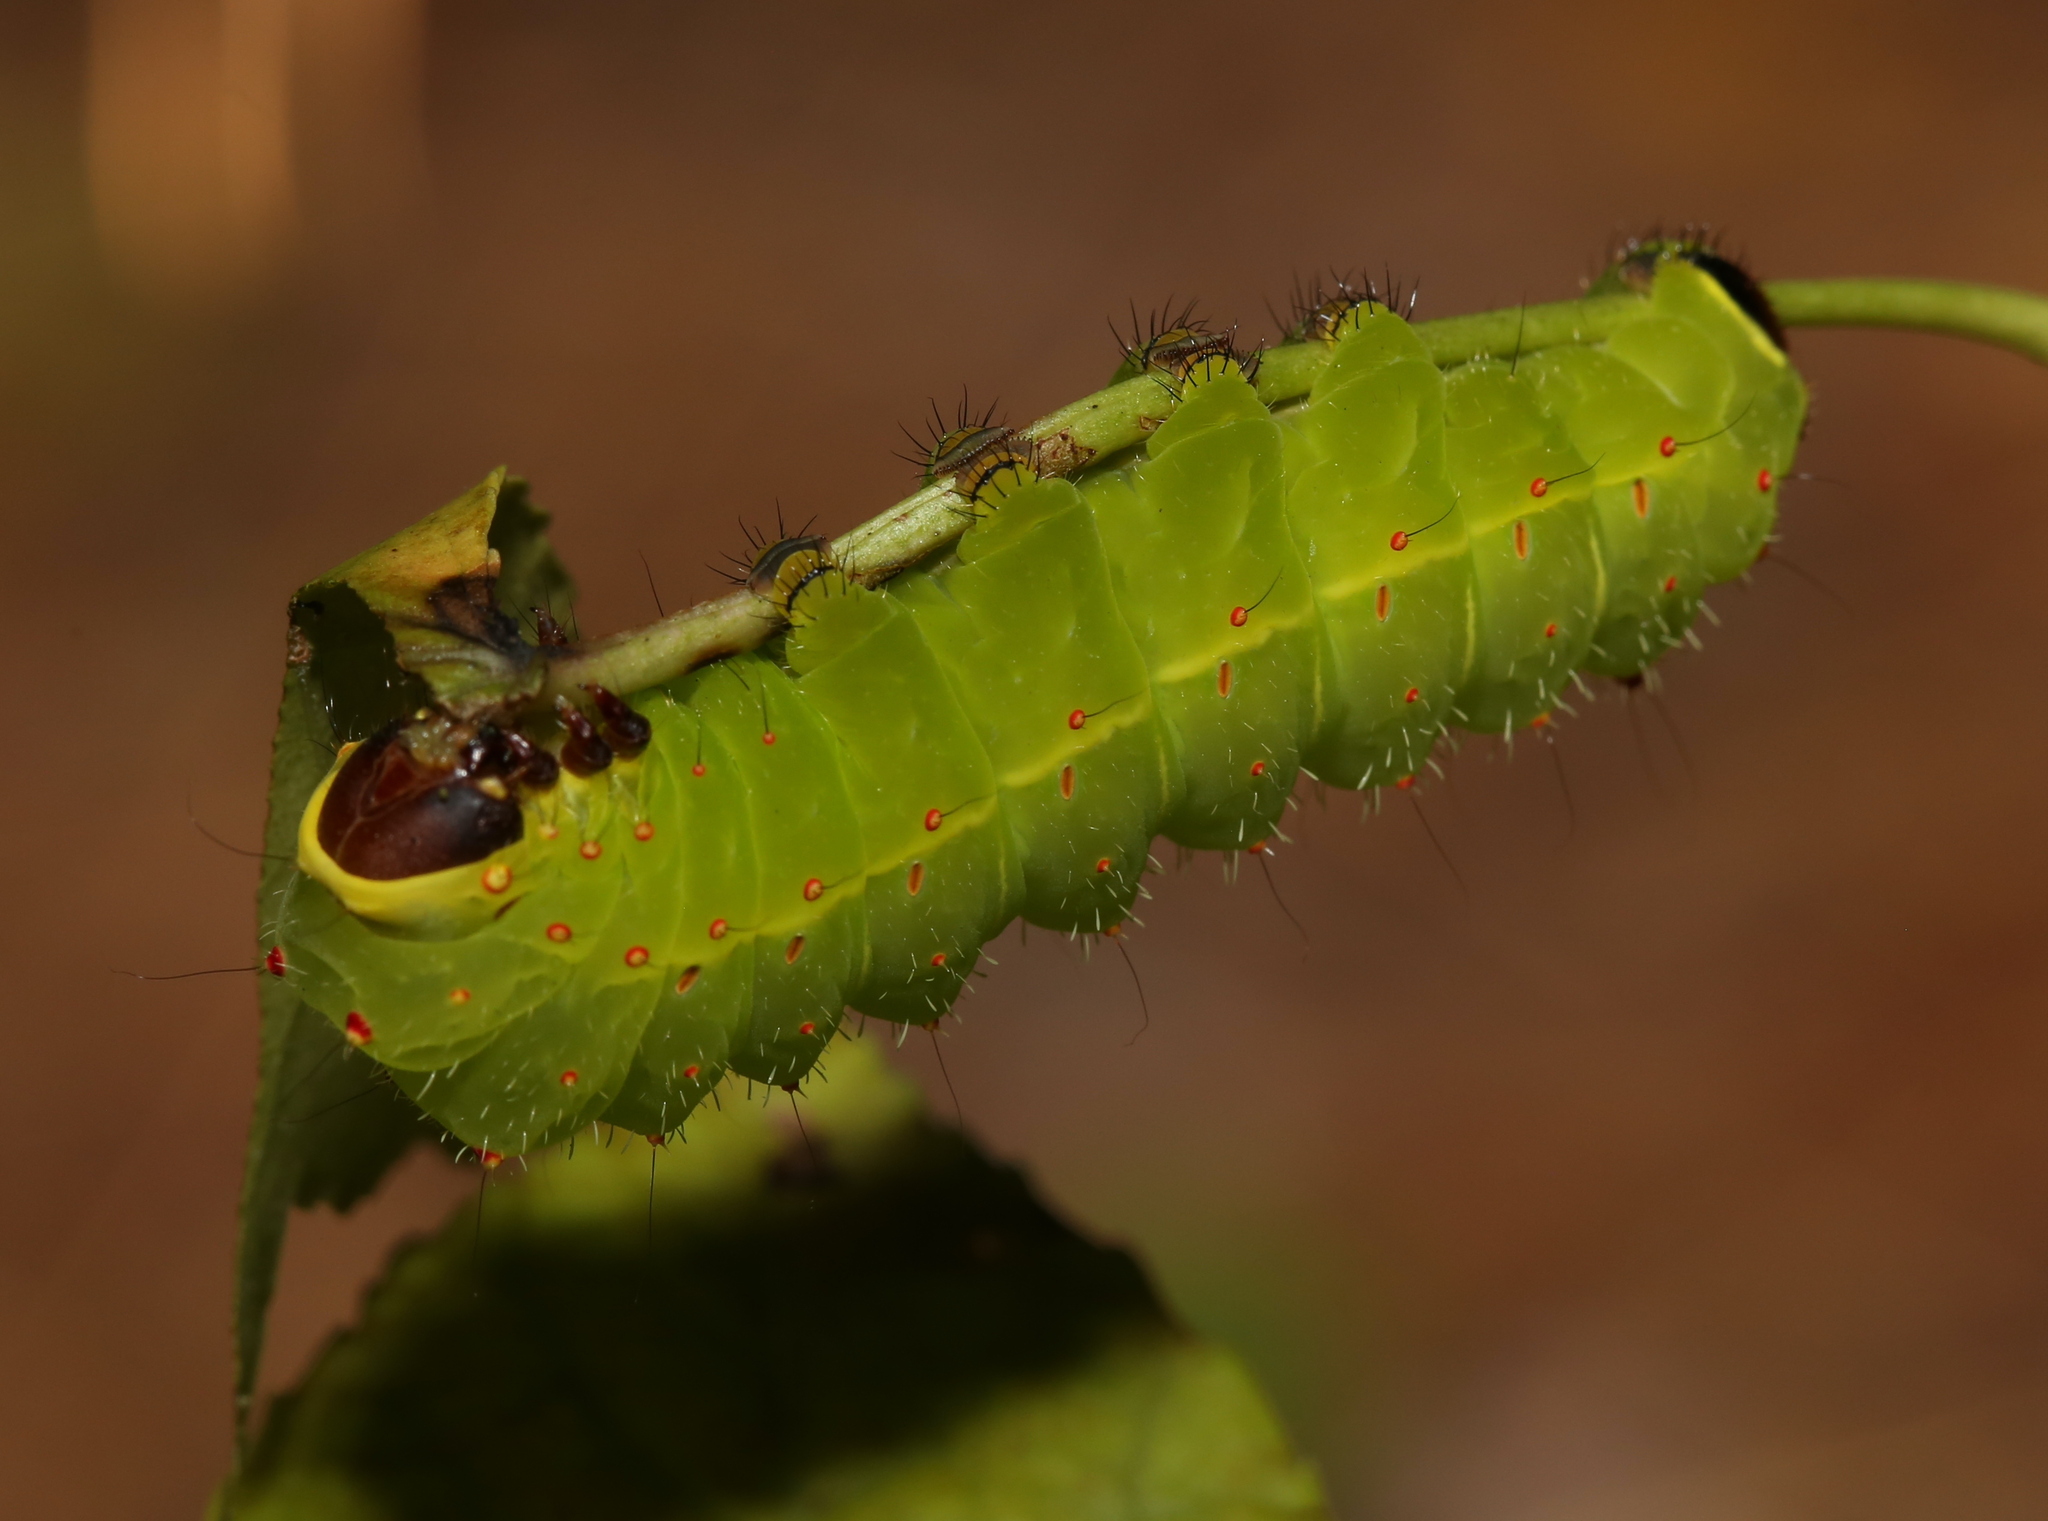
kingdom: Animalia
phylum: Arthropoda
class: Insecta
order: Lepidoptera
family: Saturniidae
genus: Actias
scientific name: Actias luna
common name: Luna moth
